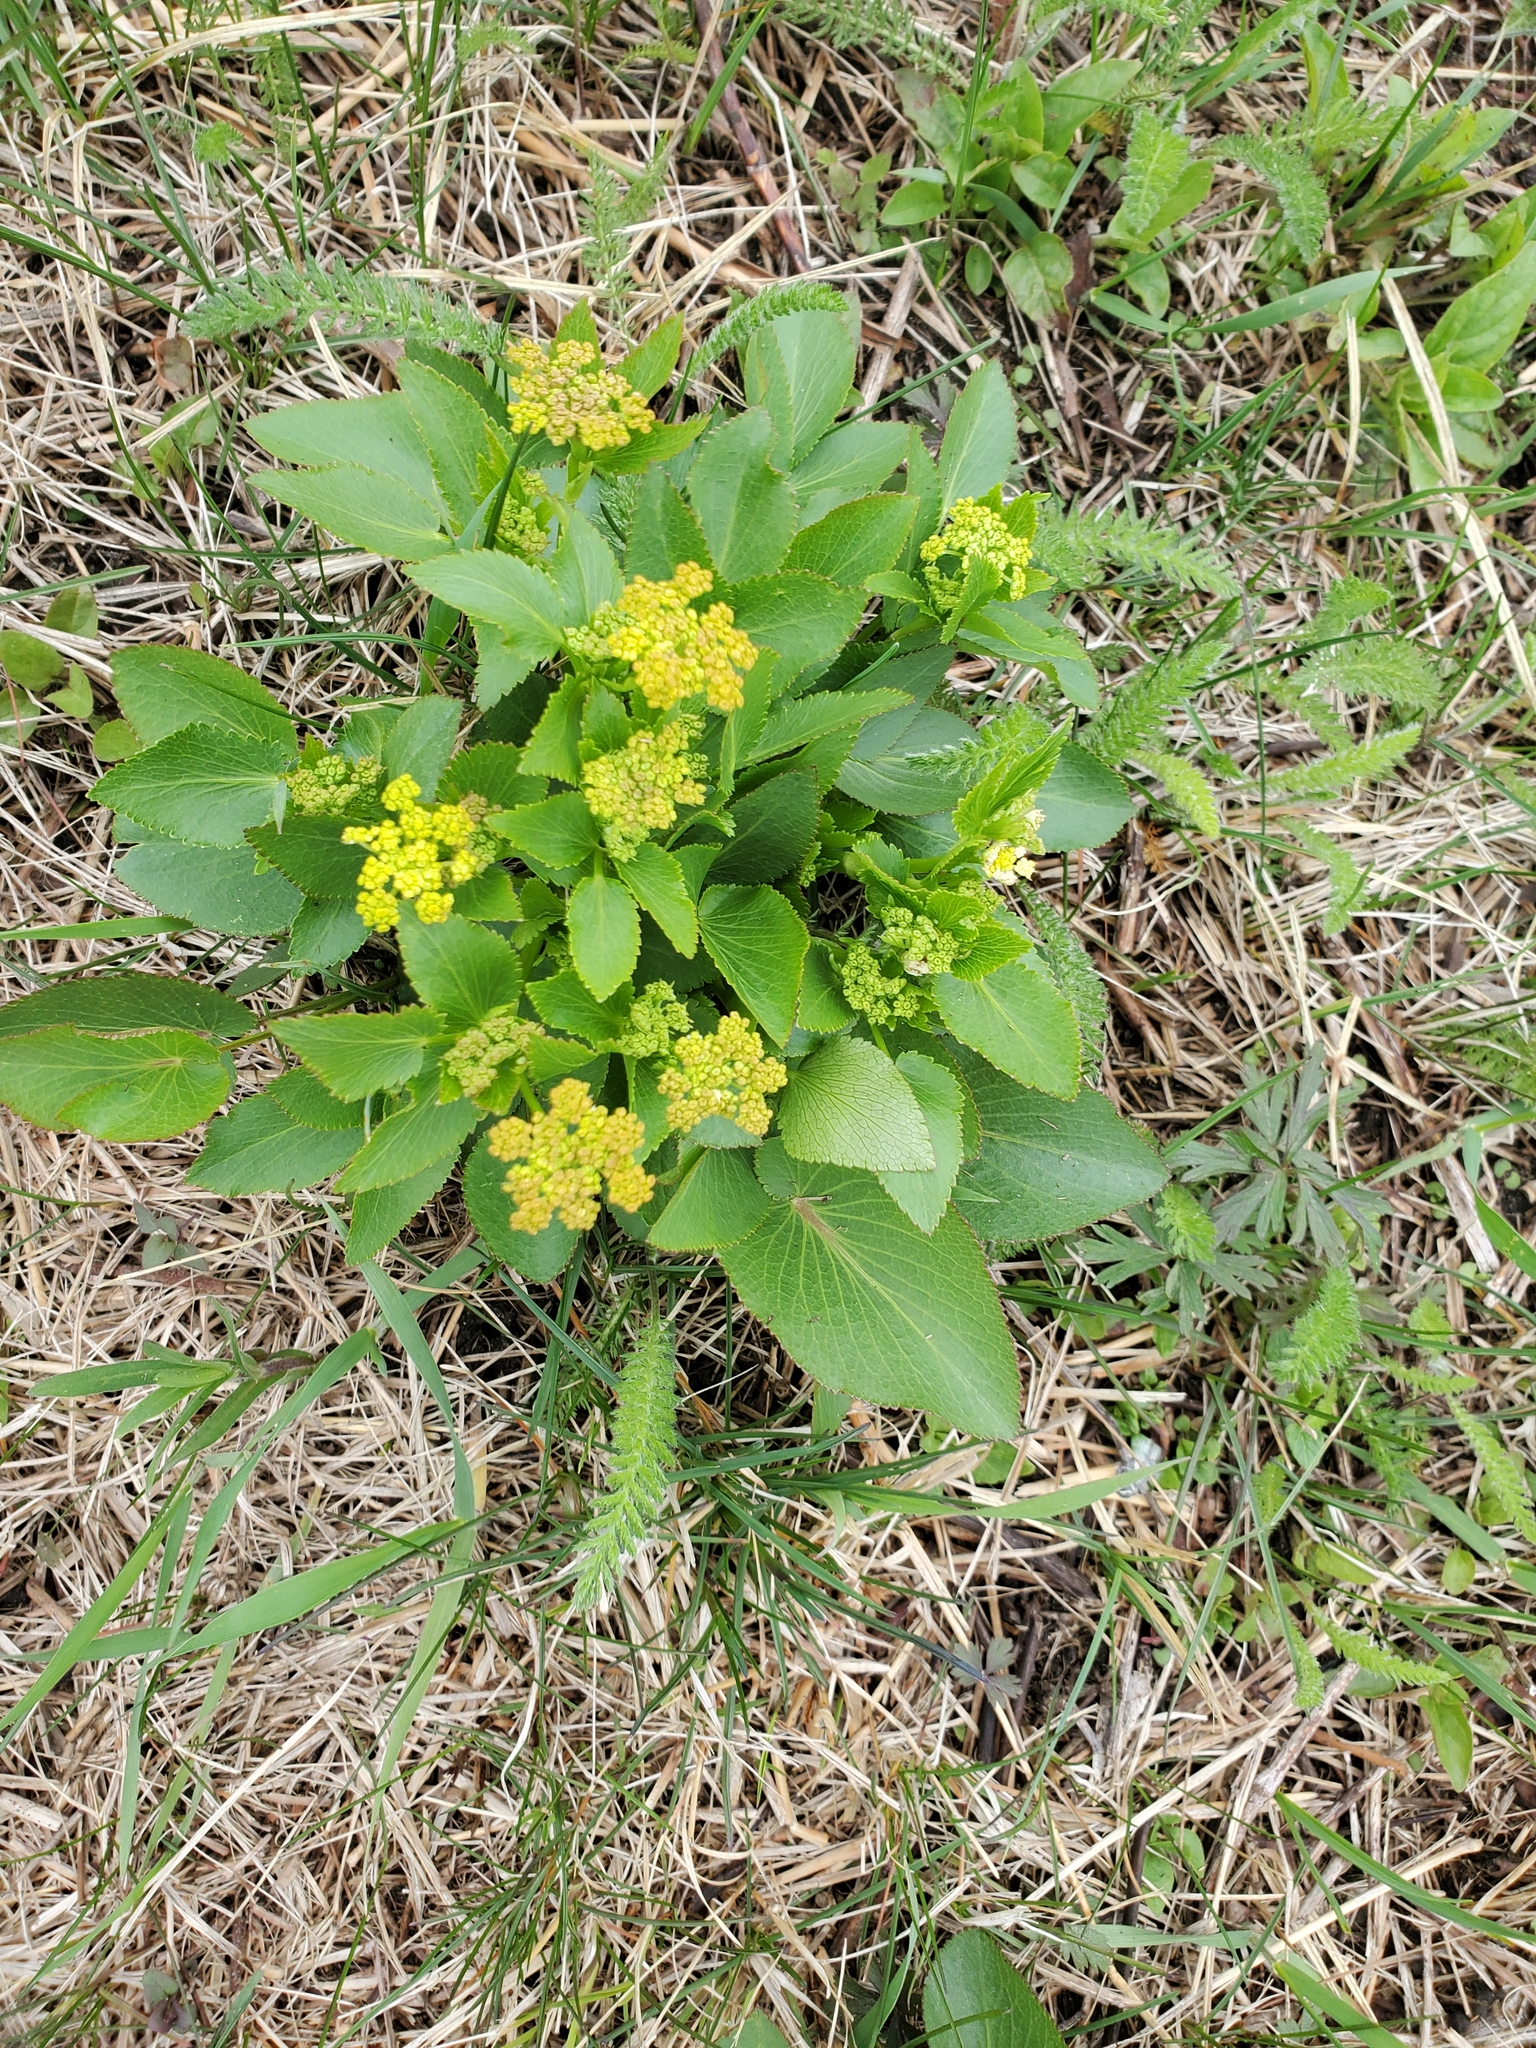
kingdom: Plantae
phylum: Tracheophyta
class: Magnoliopsida
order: Apiales
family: Apiaceae
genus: Zizia
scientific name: Zizia aptera
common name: Heart-leaved alexanders
